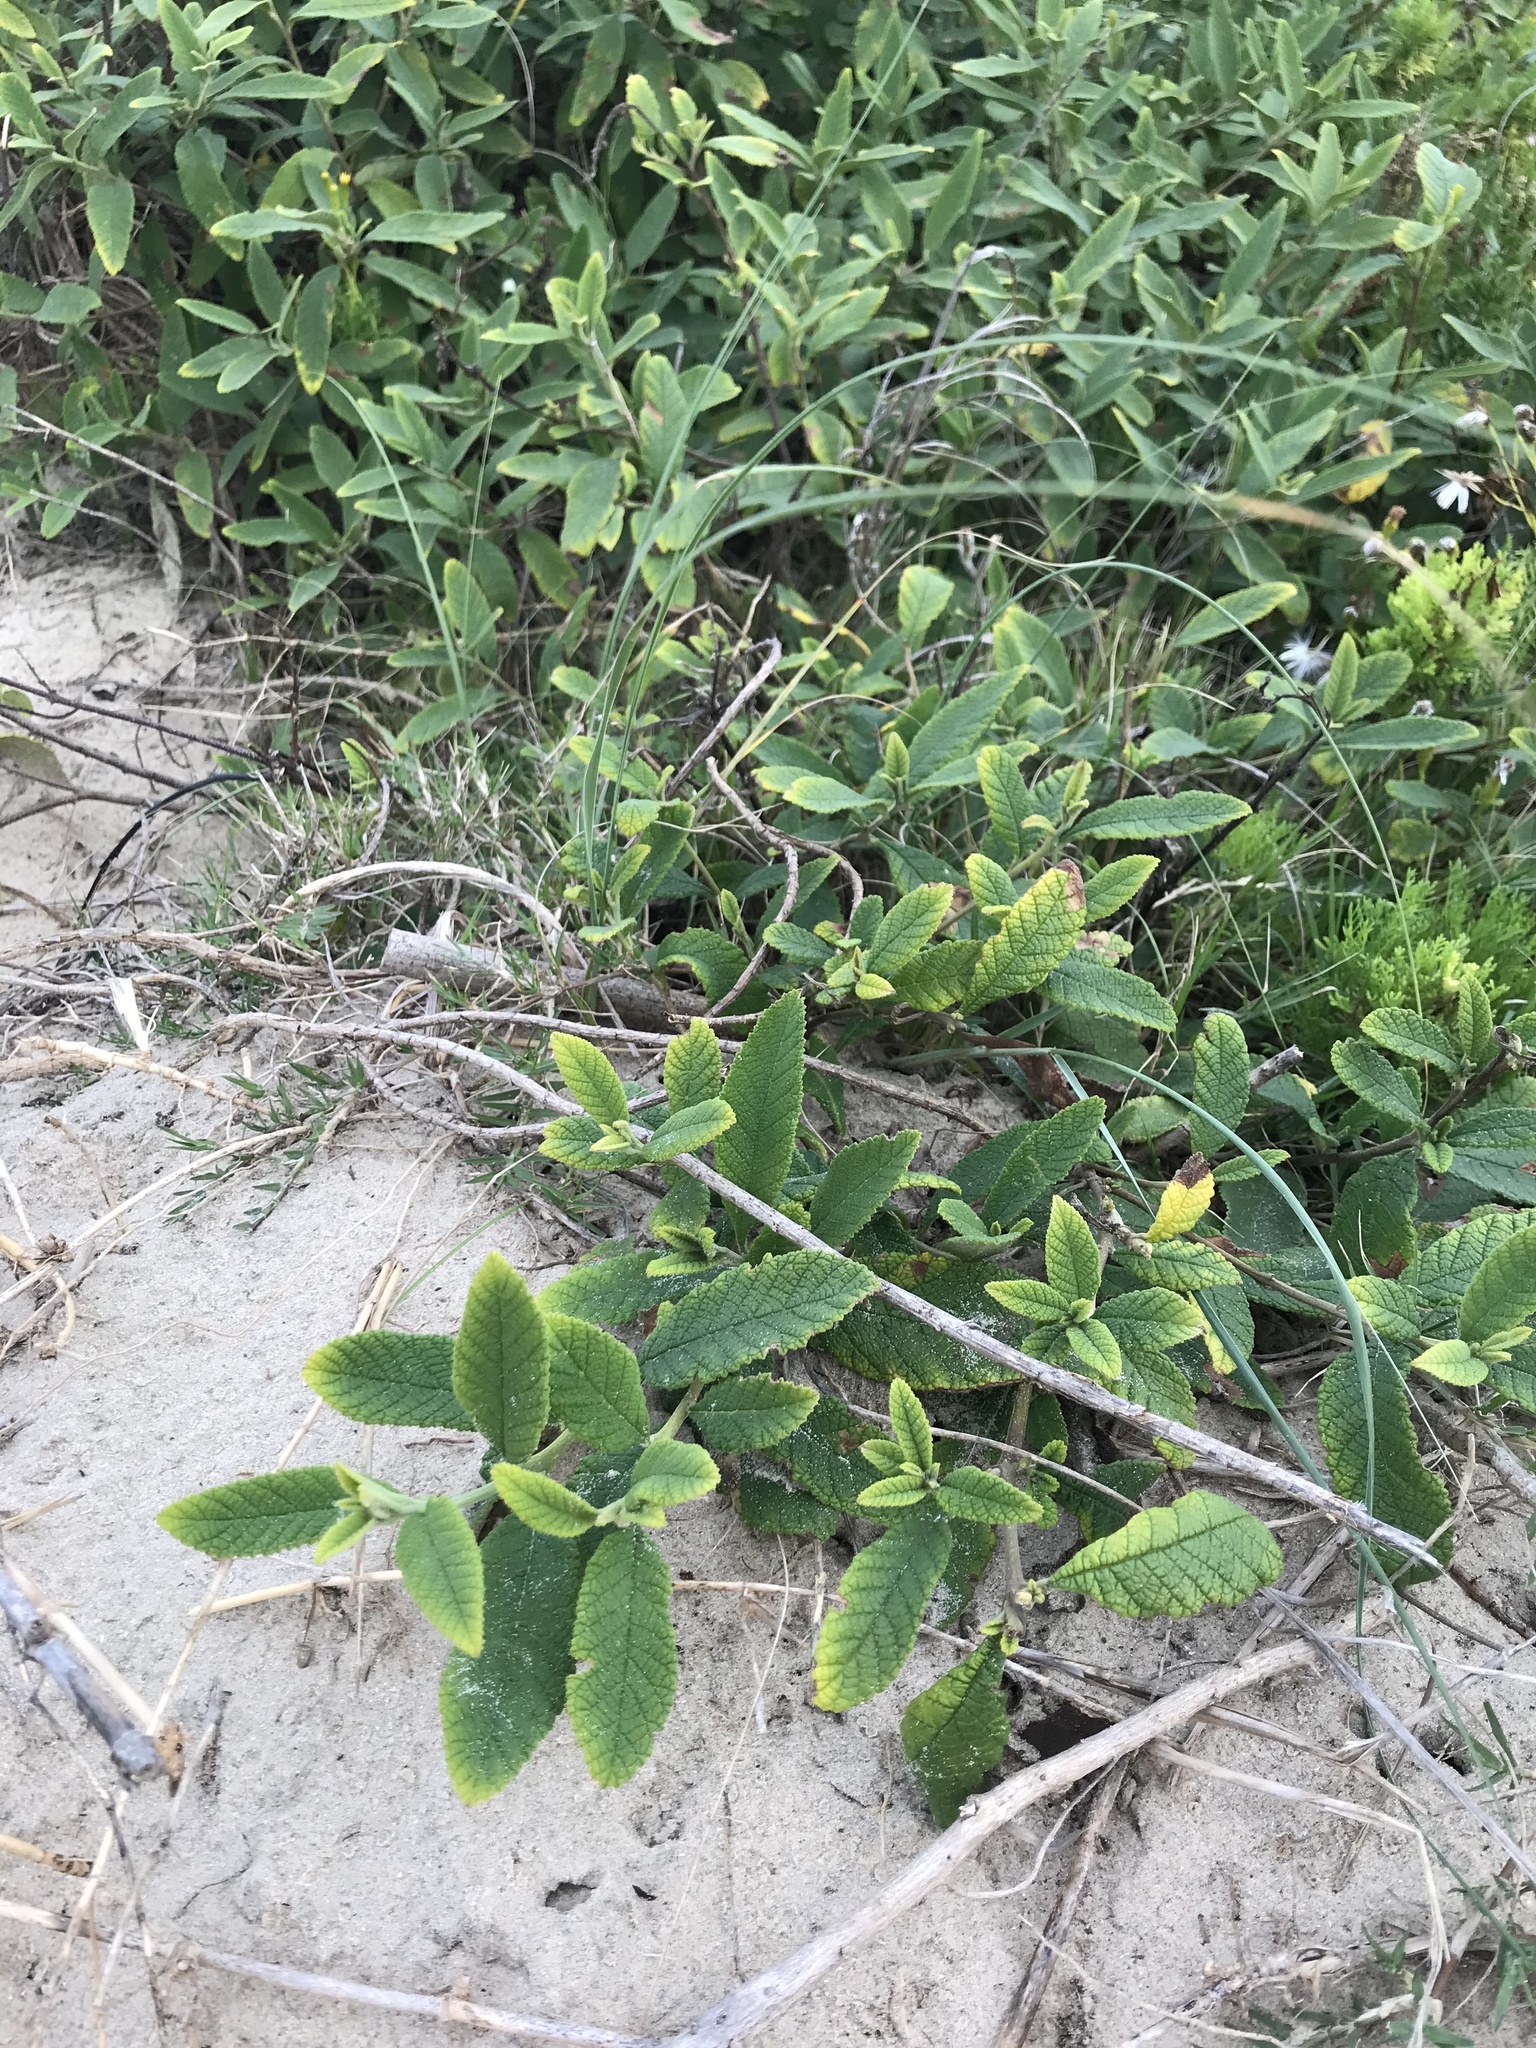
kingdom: Plantae
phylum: Tracheophyta
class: Magnoliopsida
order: Boraginales
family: Cordiaceae
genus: Varronia
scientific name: Varronia curassavica
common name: Black sage
